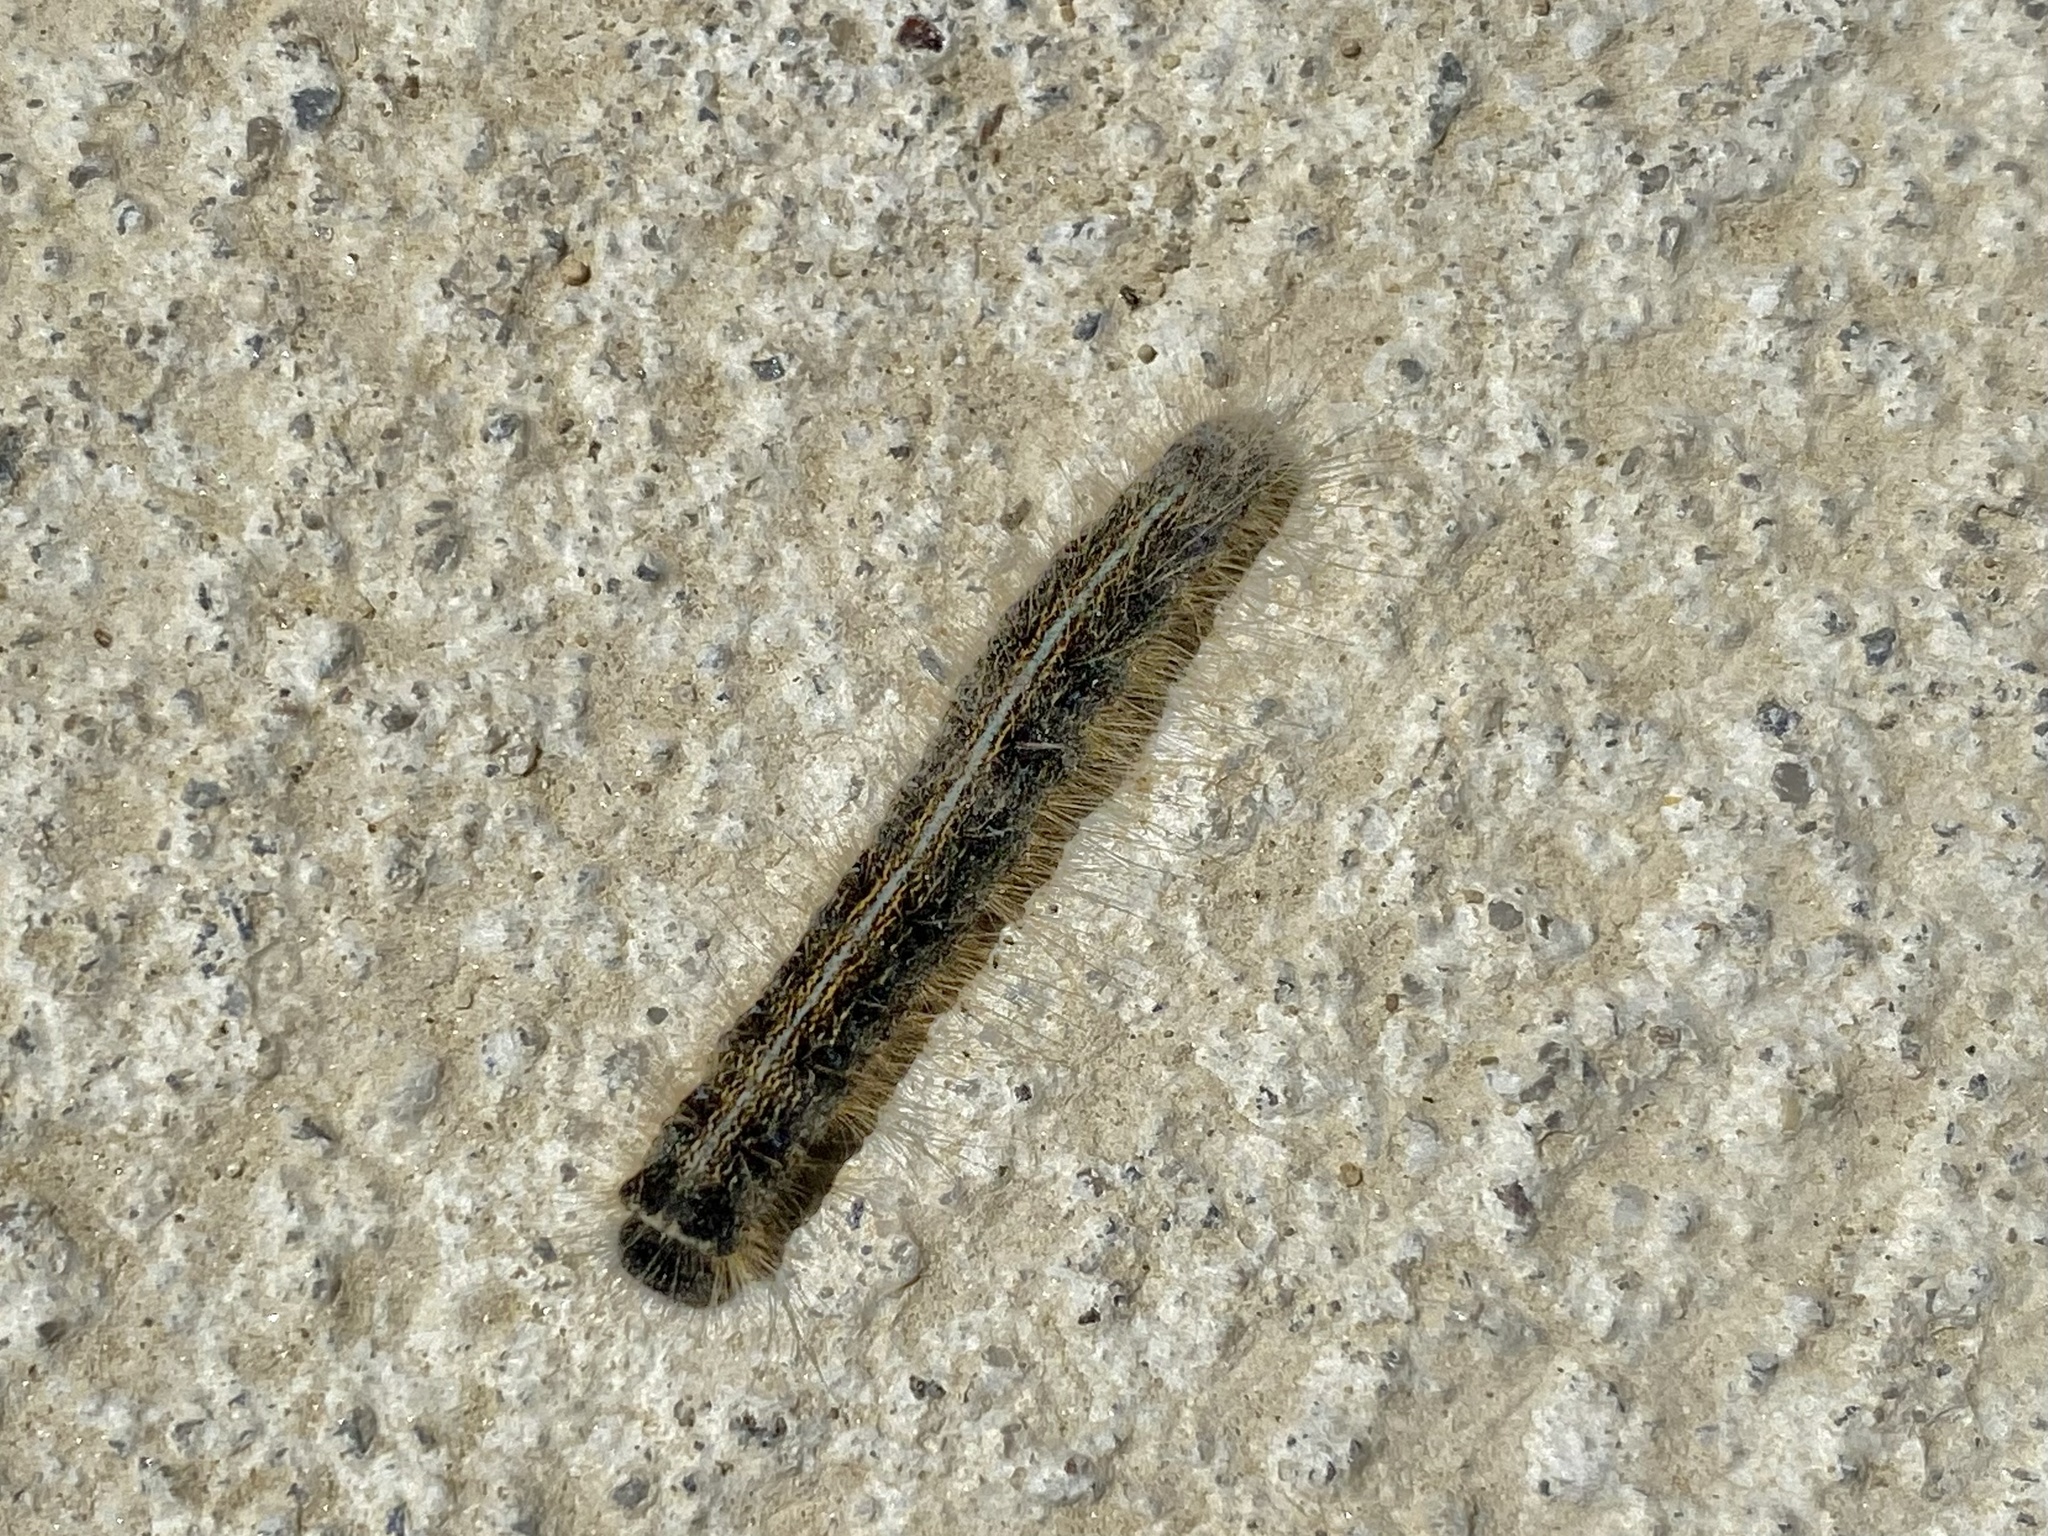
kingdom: Animalia
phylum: Arthropoda
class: Insecta
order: Lepidoptera
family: Lasiocampidae
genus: Malacosoma
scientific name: Malacosoma americana
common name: Eastern tent caterpillar moth
